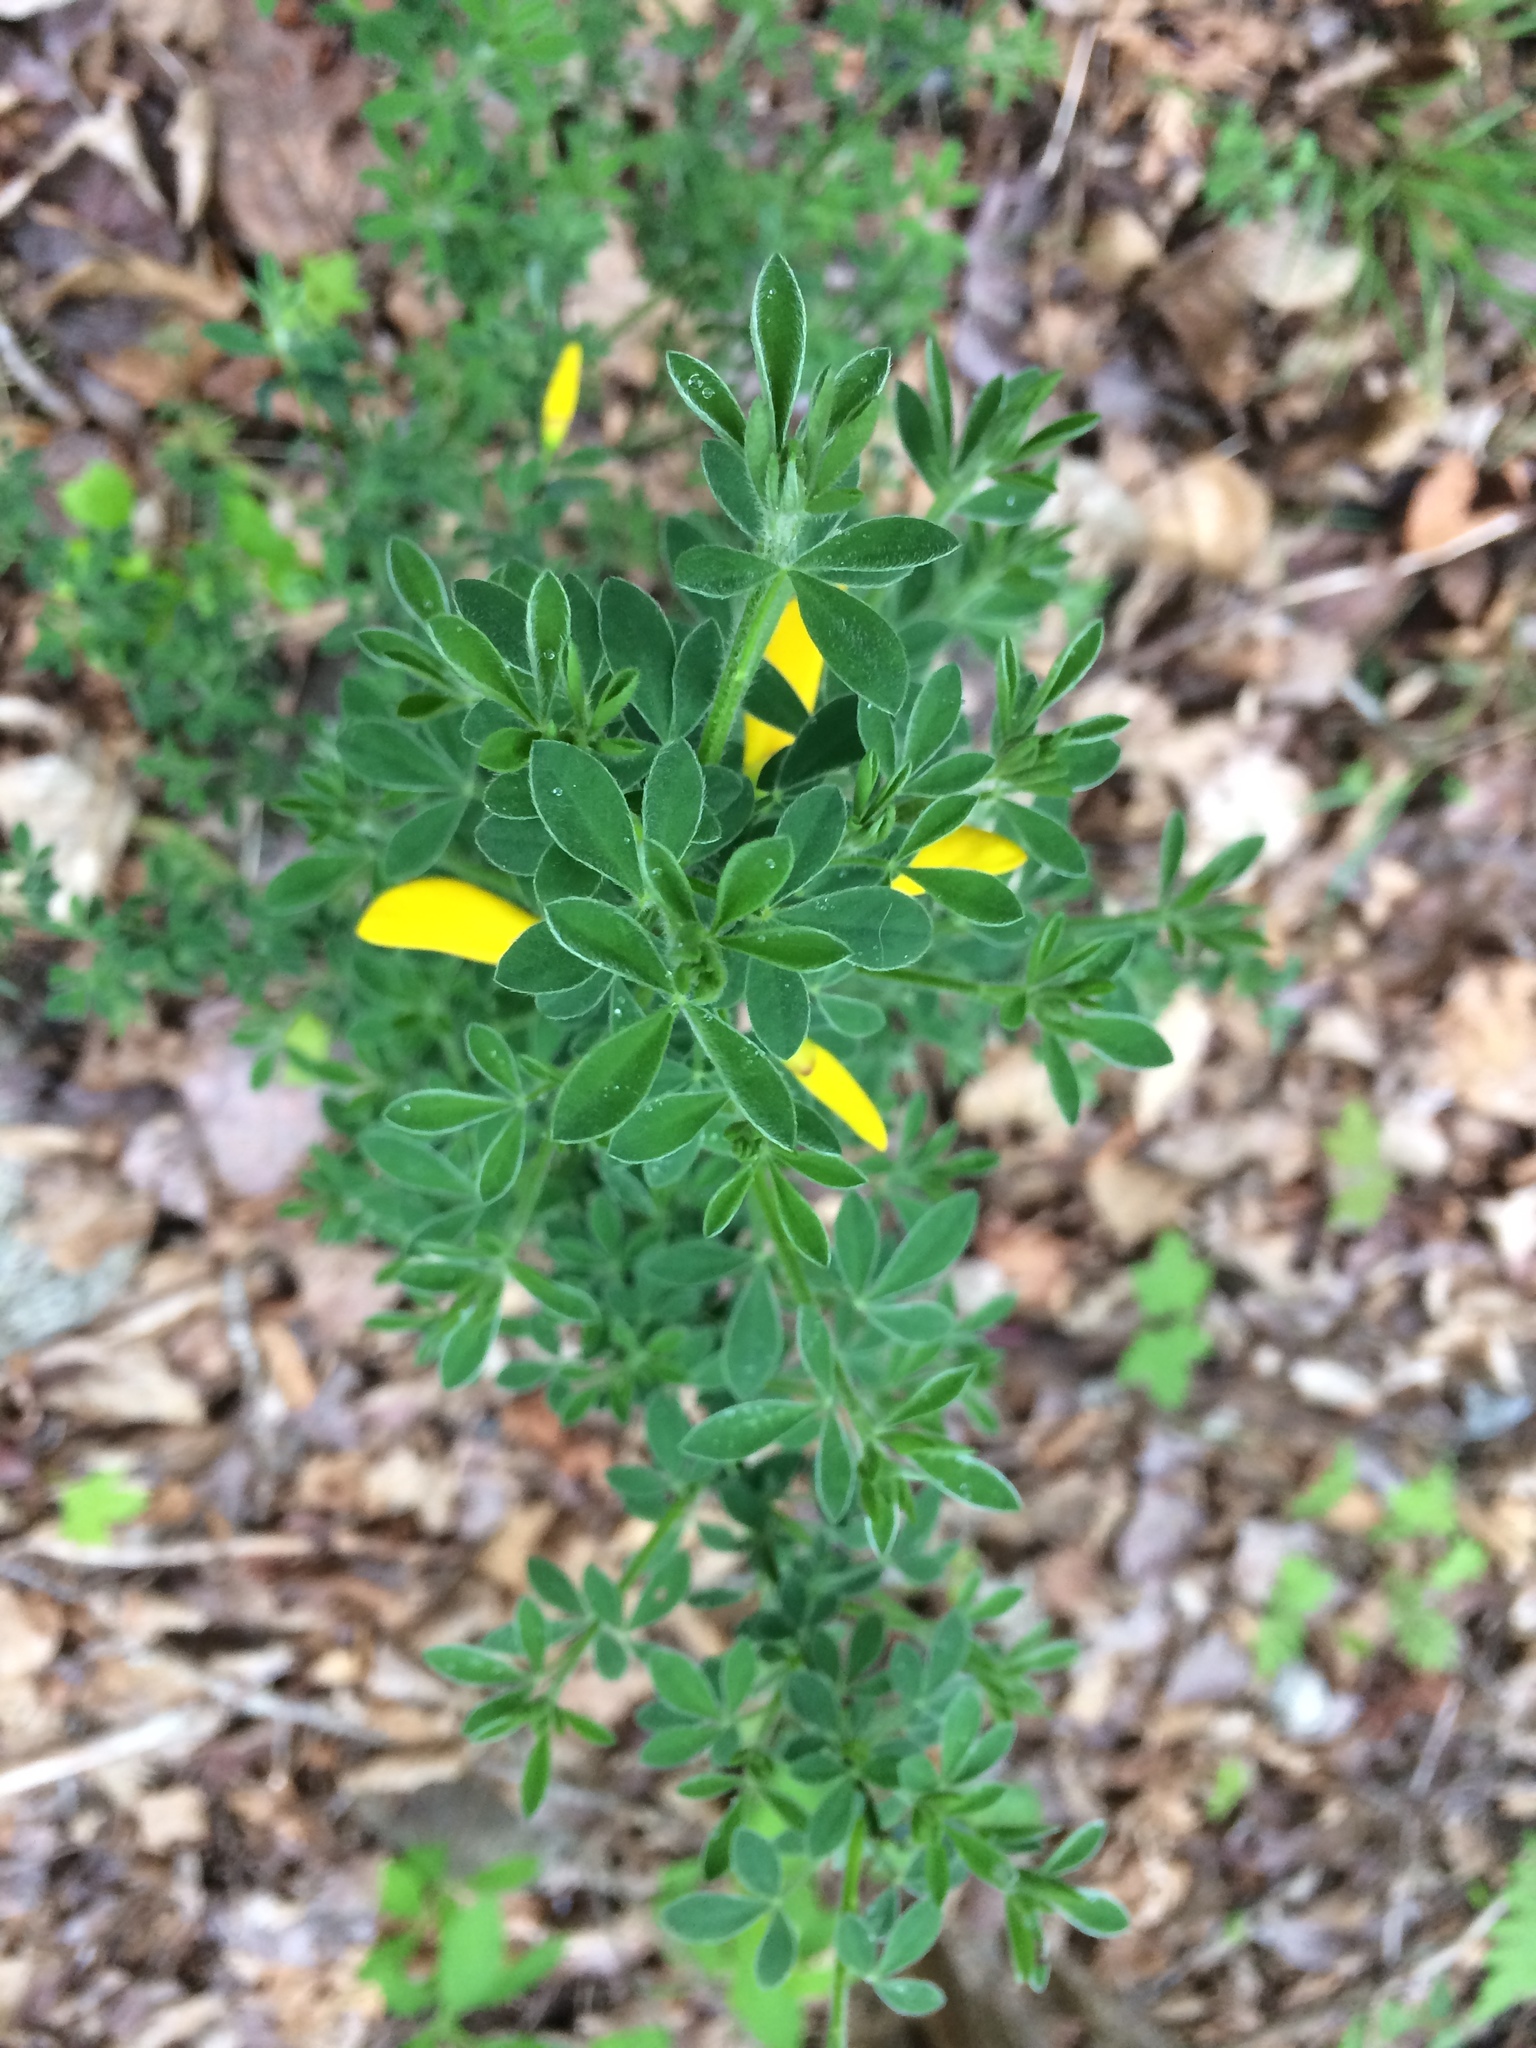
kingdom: Plantae
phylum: Tracheophyta
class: Magnoliopsida
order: Fabales
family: Fabaceae
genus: Cytisus
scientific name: Cytisus scoparius
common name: Scotch broom
